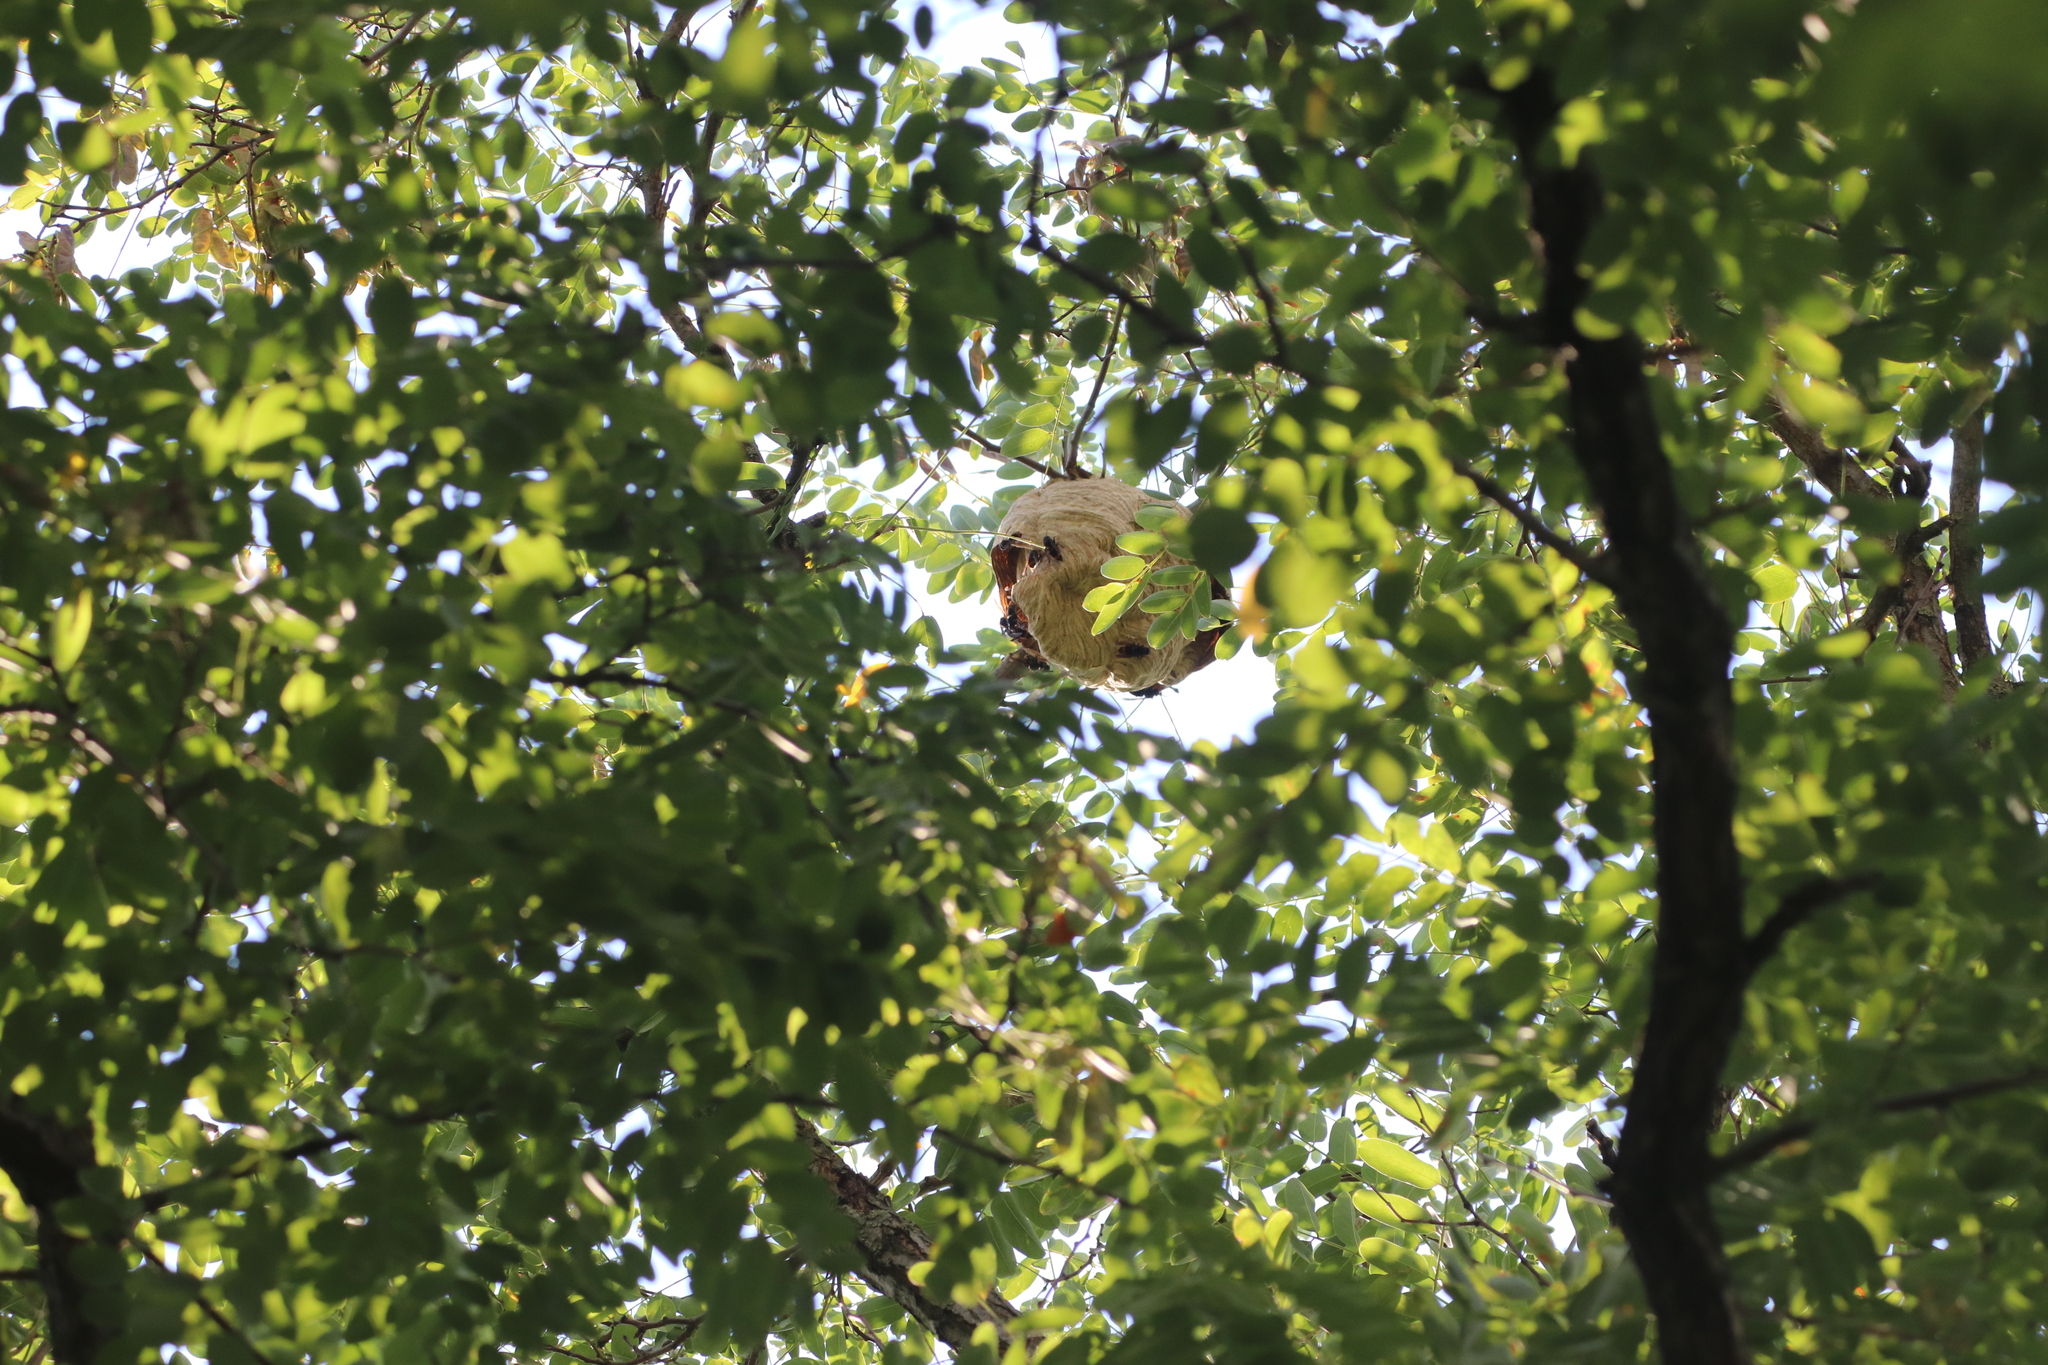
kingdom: Animalia
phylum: Arthropoda
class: Insecta
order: Hymenoptera
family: Vespidae
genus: Vespa
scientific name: Vespa velutina
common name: Asian hornet
